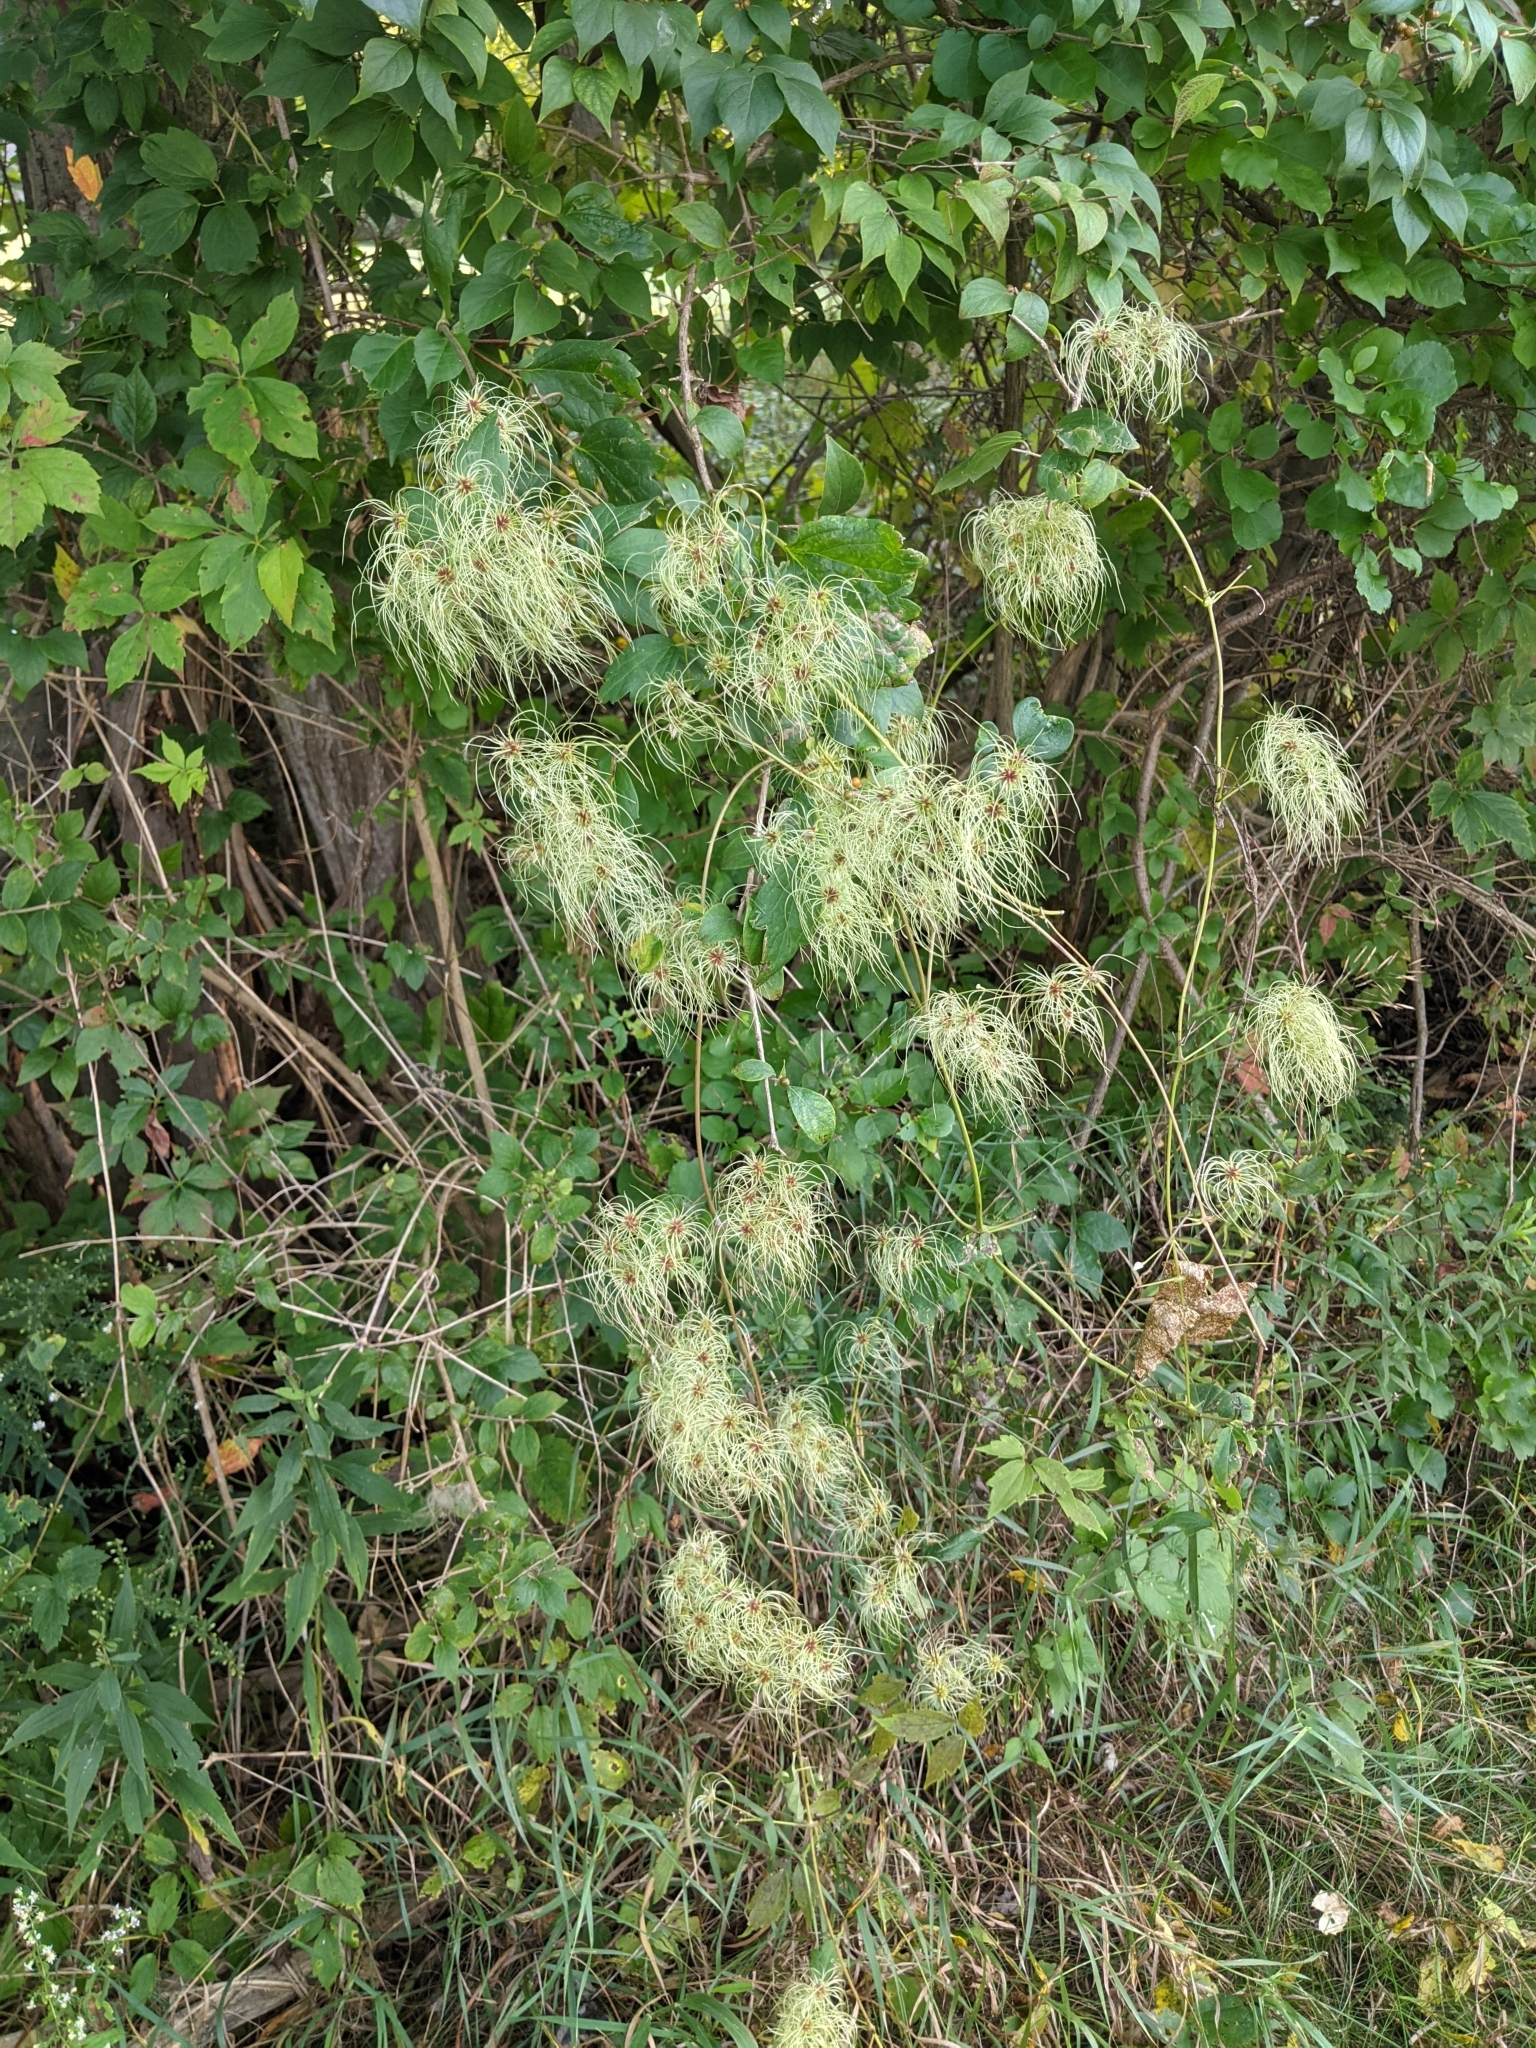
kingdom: Plantae
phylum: Tracheophyta
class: Magnoliopsida
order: Ranunculales
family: Ranunculaceae
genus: Clematis
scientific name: Clematis virginiana
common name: Virgin's-bower
